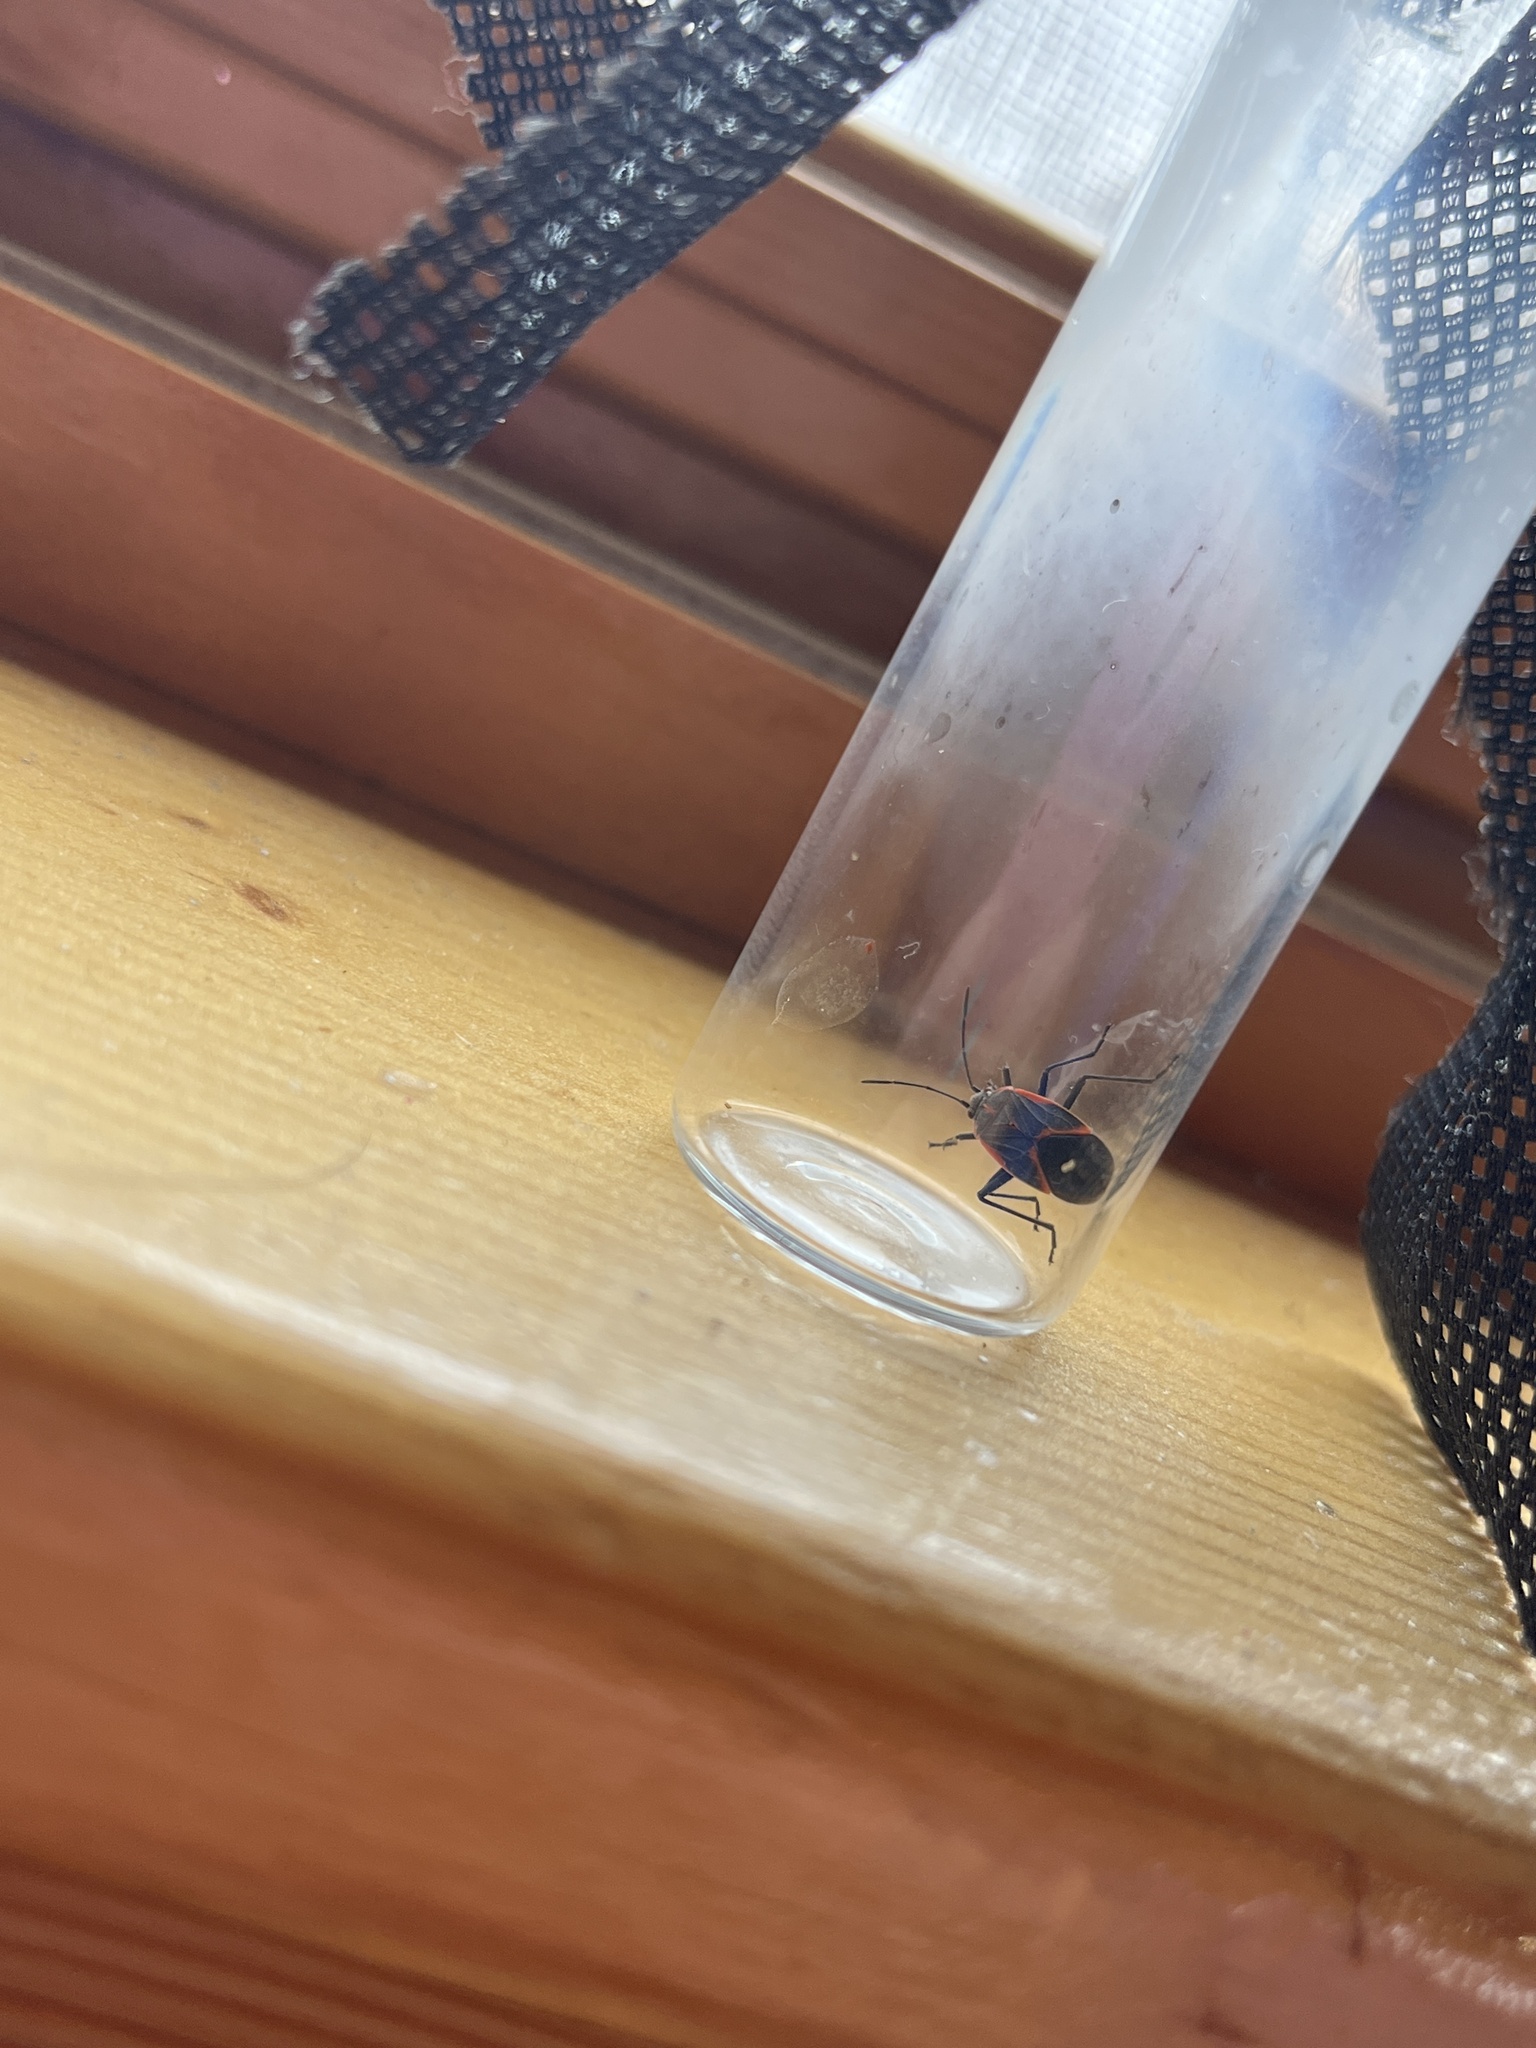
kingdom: Animalia
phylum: Arthropoda
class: Insecta
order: Hemiptera
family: Rhopalidae
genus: Boisea
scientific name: Boisea trivittata
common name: Boxelder bug
